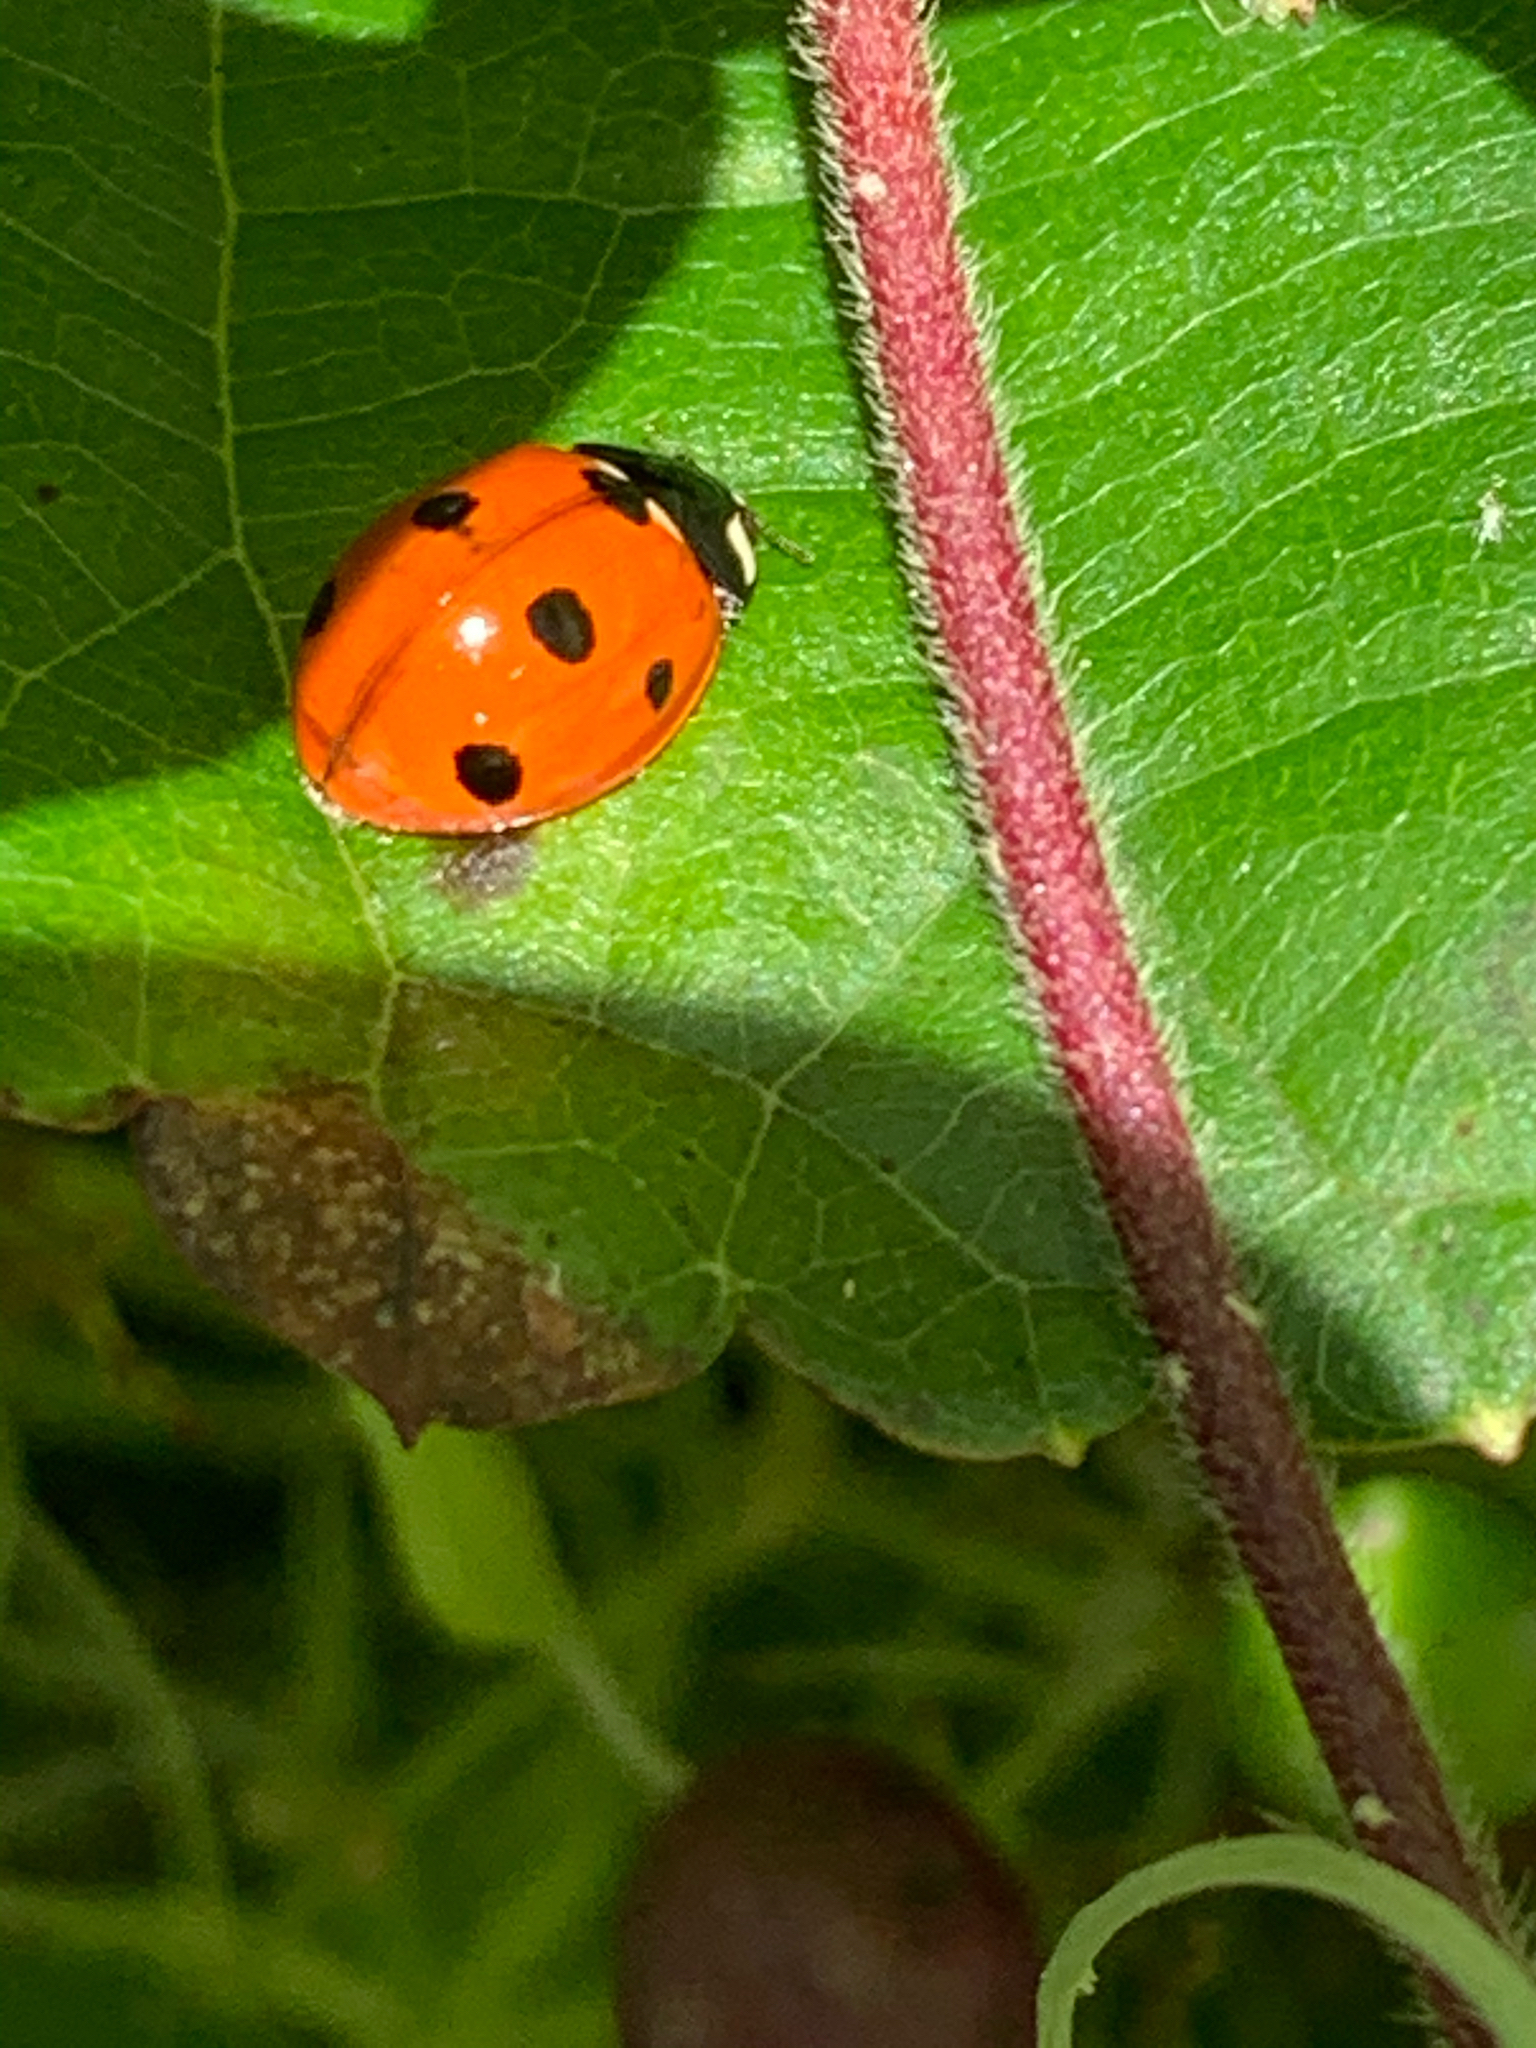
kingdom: Animalia
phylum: Arthropoda
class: Insecta
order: Coleoptera
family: Coccinellidae
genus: Coccinella
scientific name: Coccinella septempunctata
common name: Sevenspotted lady beetle
